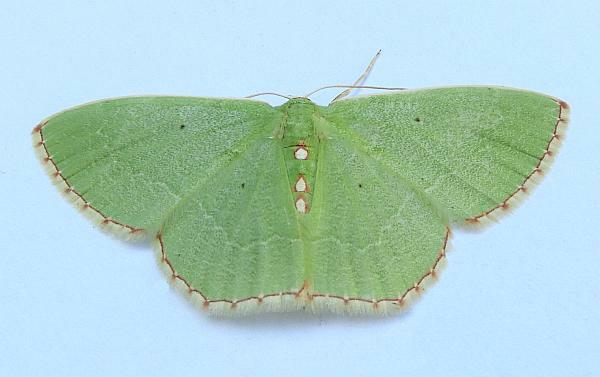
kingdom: Animalia
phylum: Arthropoda
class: Insecta
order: Lepidoptera
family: Geometridae
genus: Nemoria
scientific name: Nemoria lixaria
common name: Red-bordered emerald
